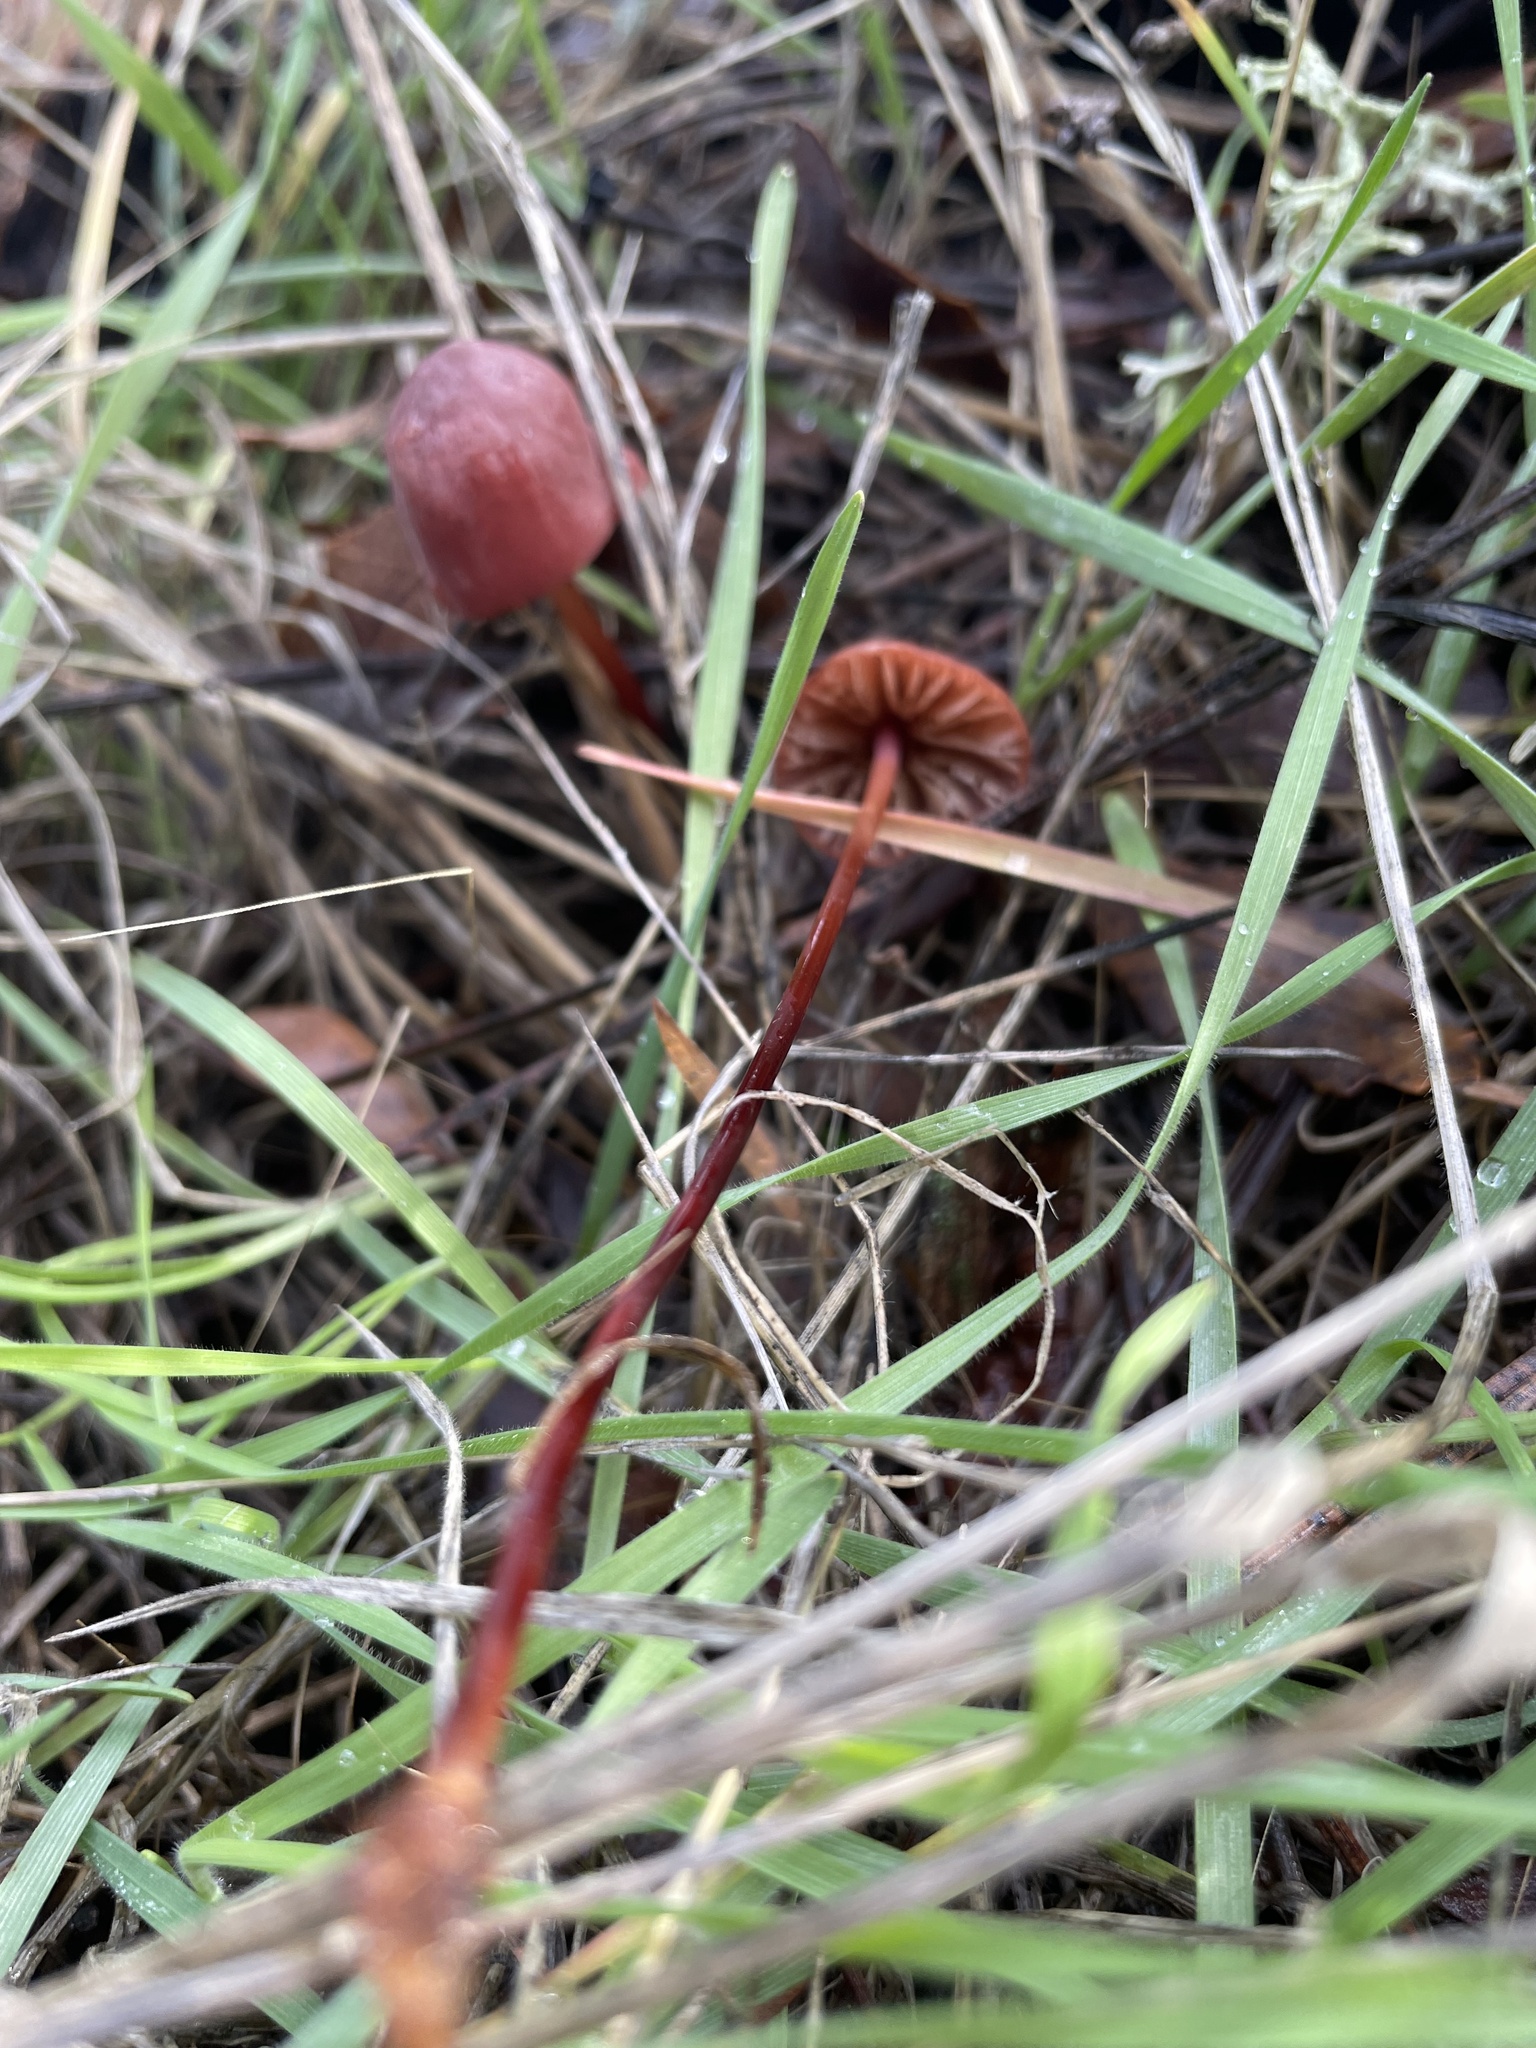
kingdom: Fungi
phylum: Basidiomycota
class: Agaricomycetes
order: Agaricales
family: Marasmiaceae
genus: Marasmius
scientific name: Marasmius plicatulus
